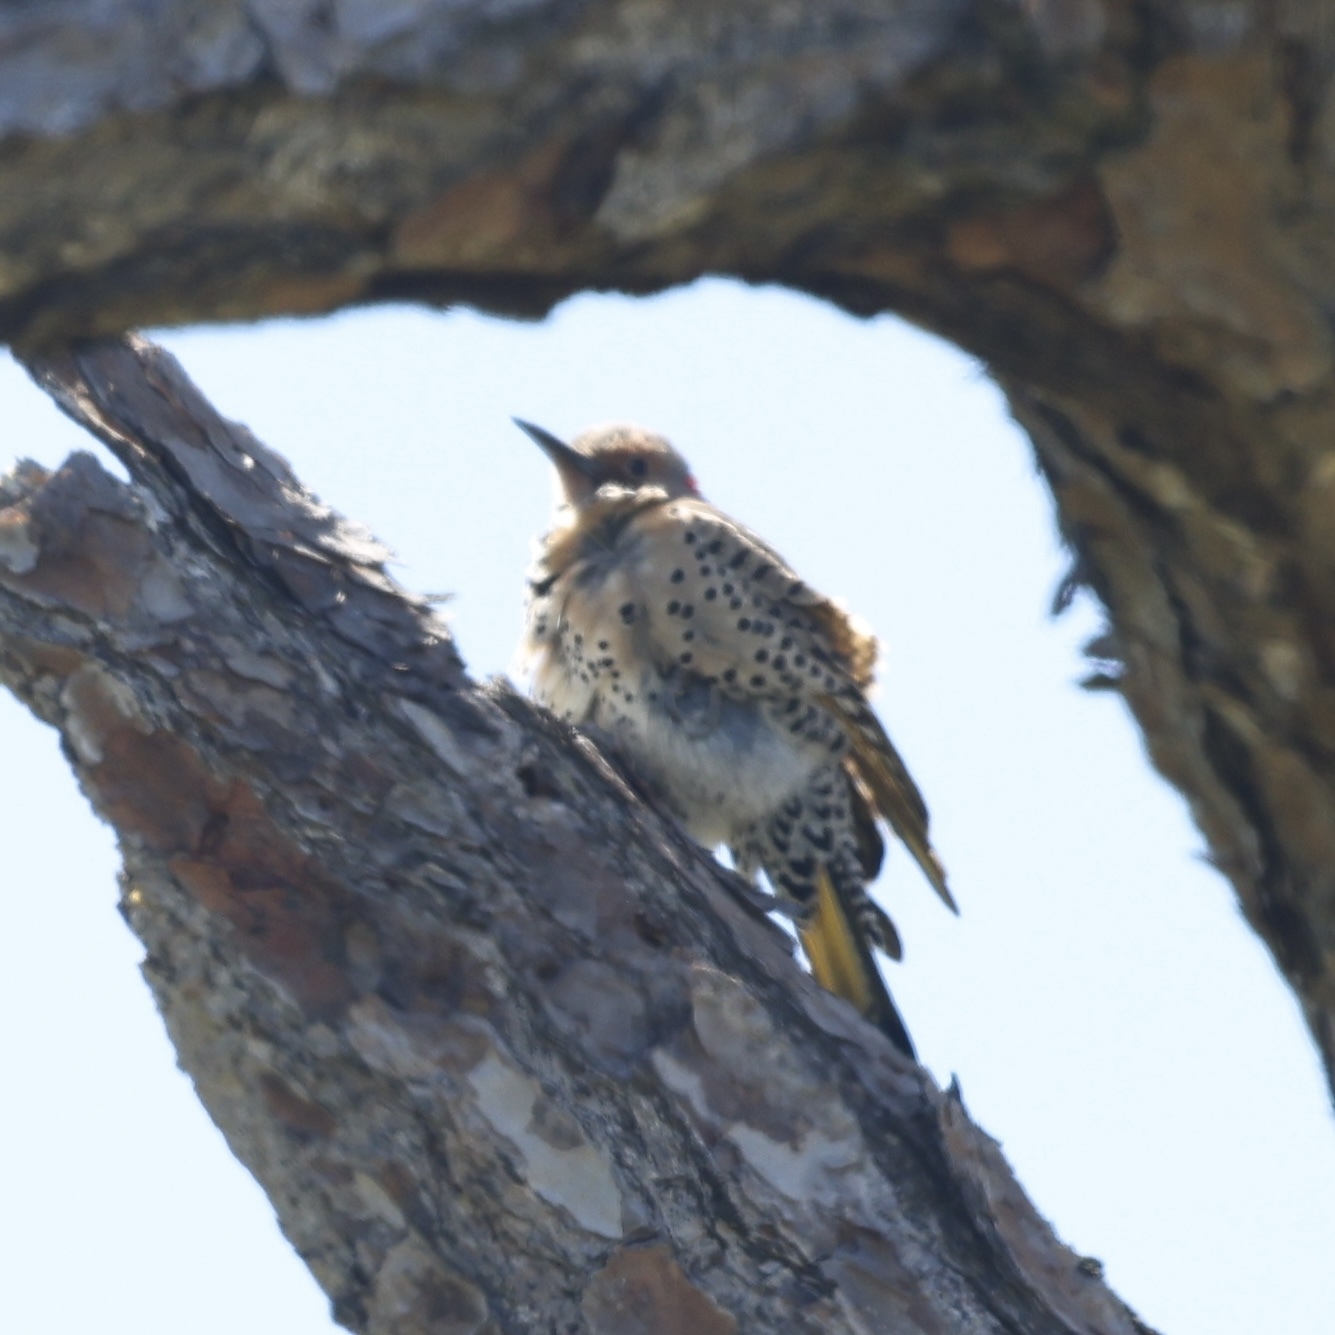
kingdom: Animalia
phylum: Chordata
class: Aves
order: Piciformes
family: Picidae
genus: Colaptes
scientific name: Colaptes auratus
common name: Northern flicker
